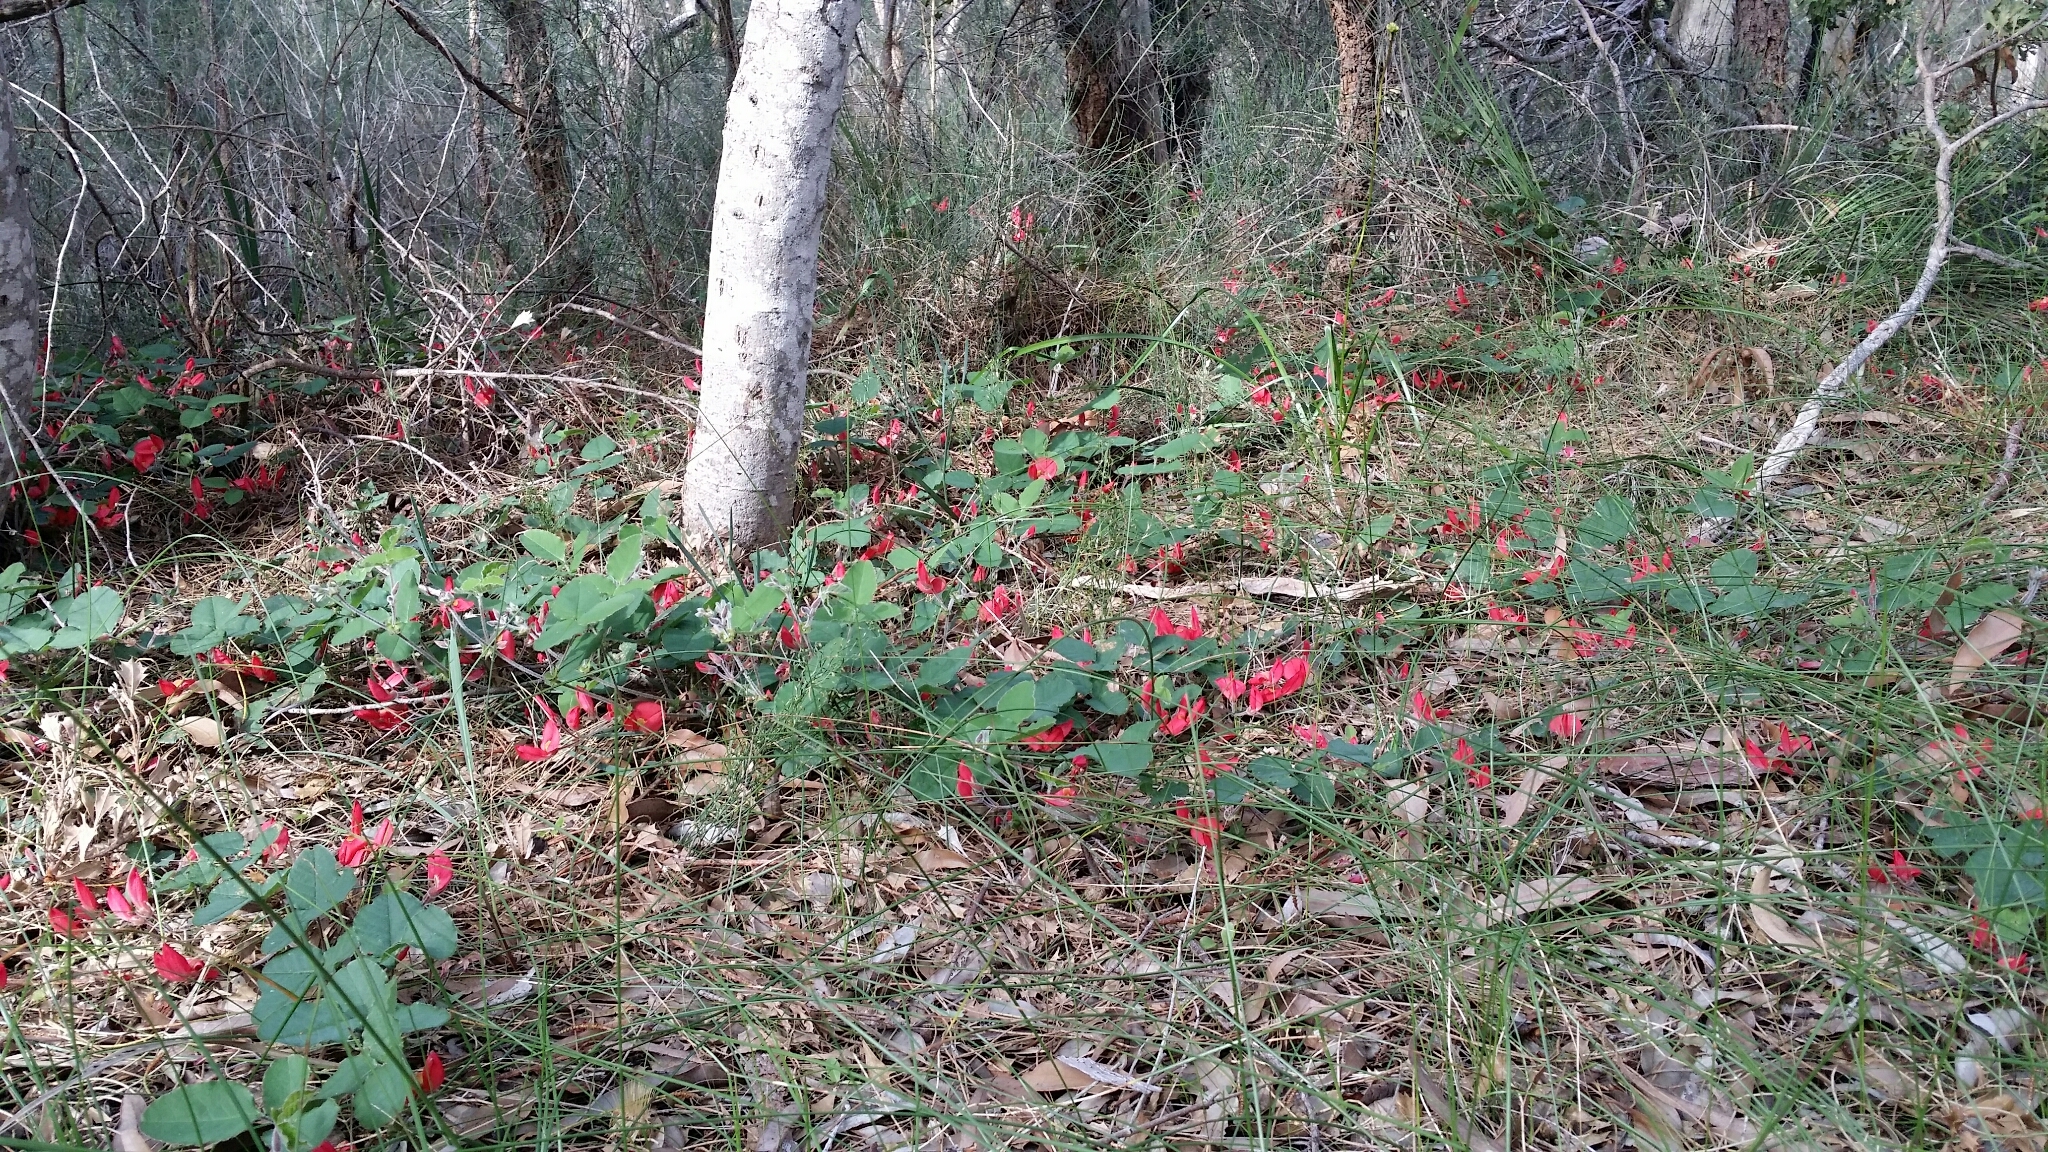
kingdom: Plantae
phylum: Tracheophyta
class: Magnoliopsida
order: Fabales
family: Fabaceae
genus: Kennedia
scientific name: Kennedia prostrata
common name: Running-postman
